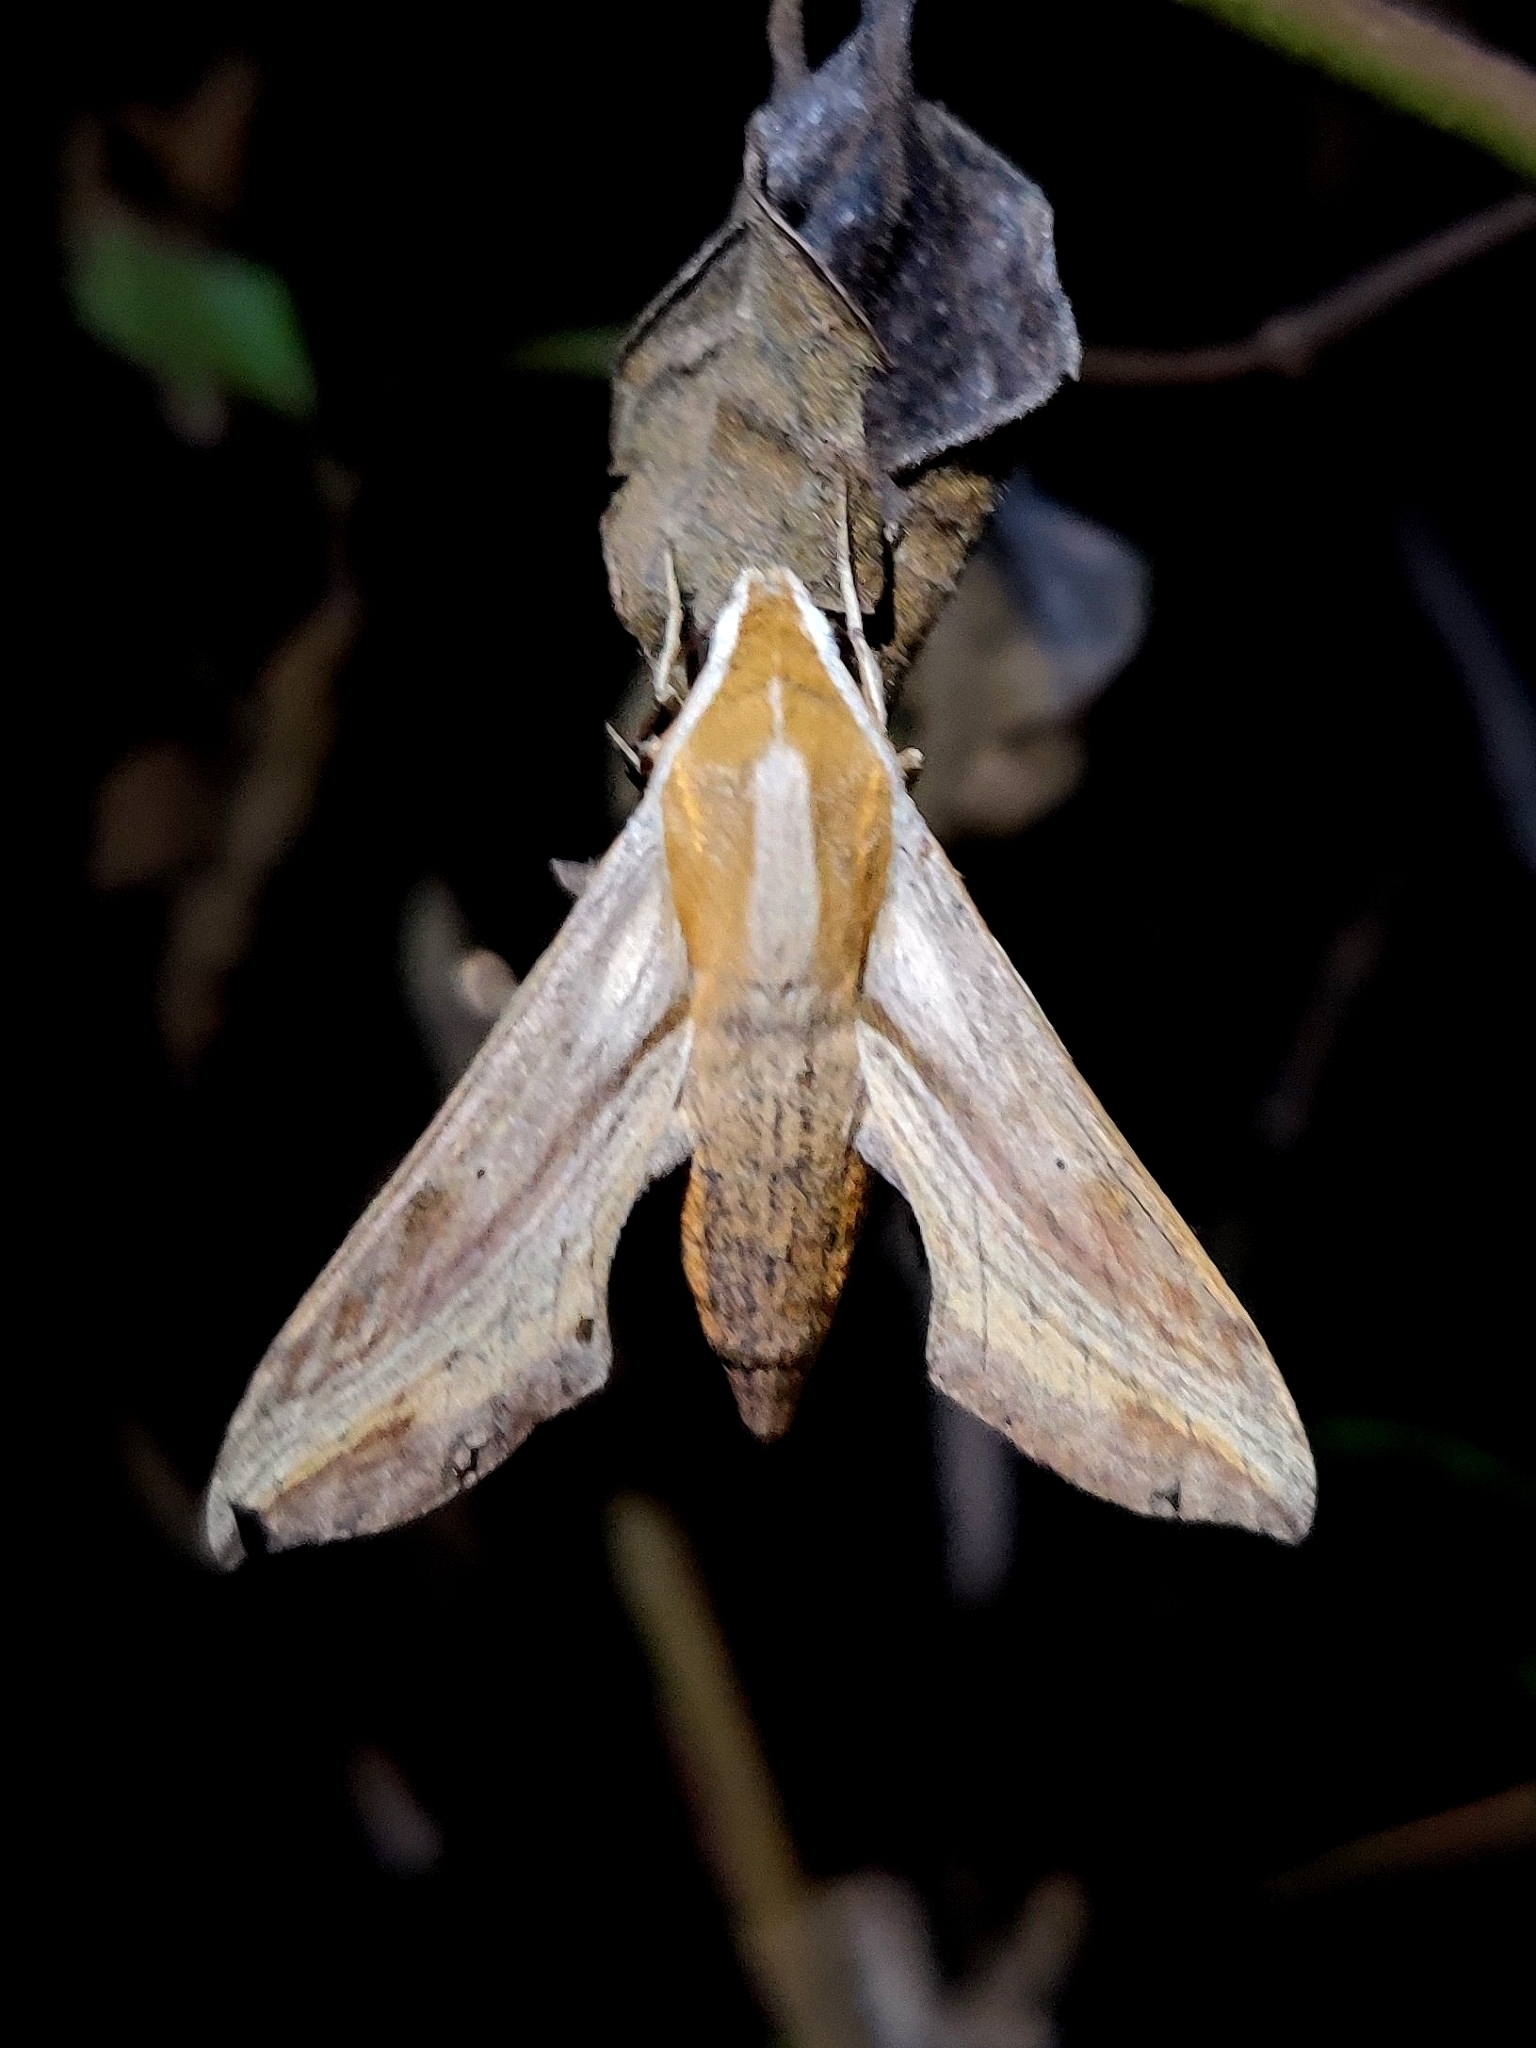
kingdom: Animalia
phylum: Arthropoda
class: Insecta
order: Lepidoptera
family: Sphingidae
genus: Hippotion
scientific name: Hippotion rosetta
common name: Vine hawk moth
